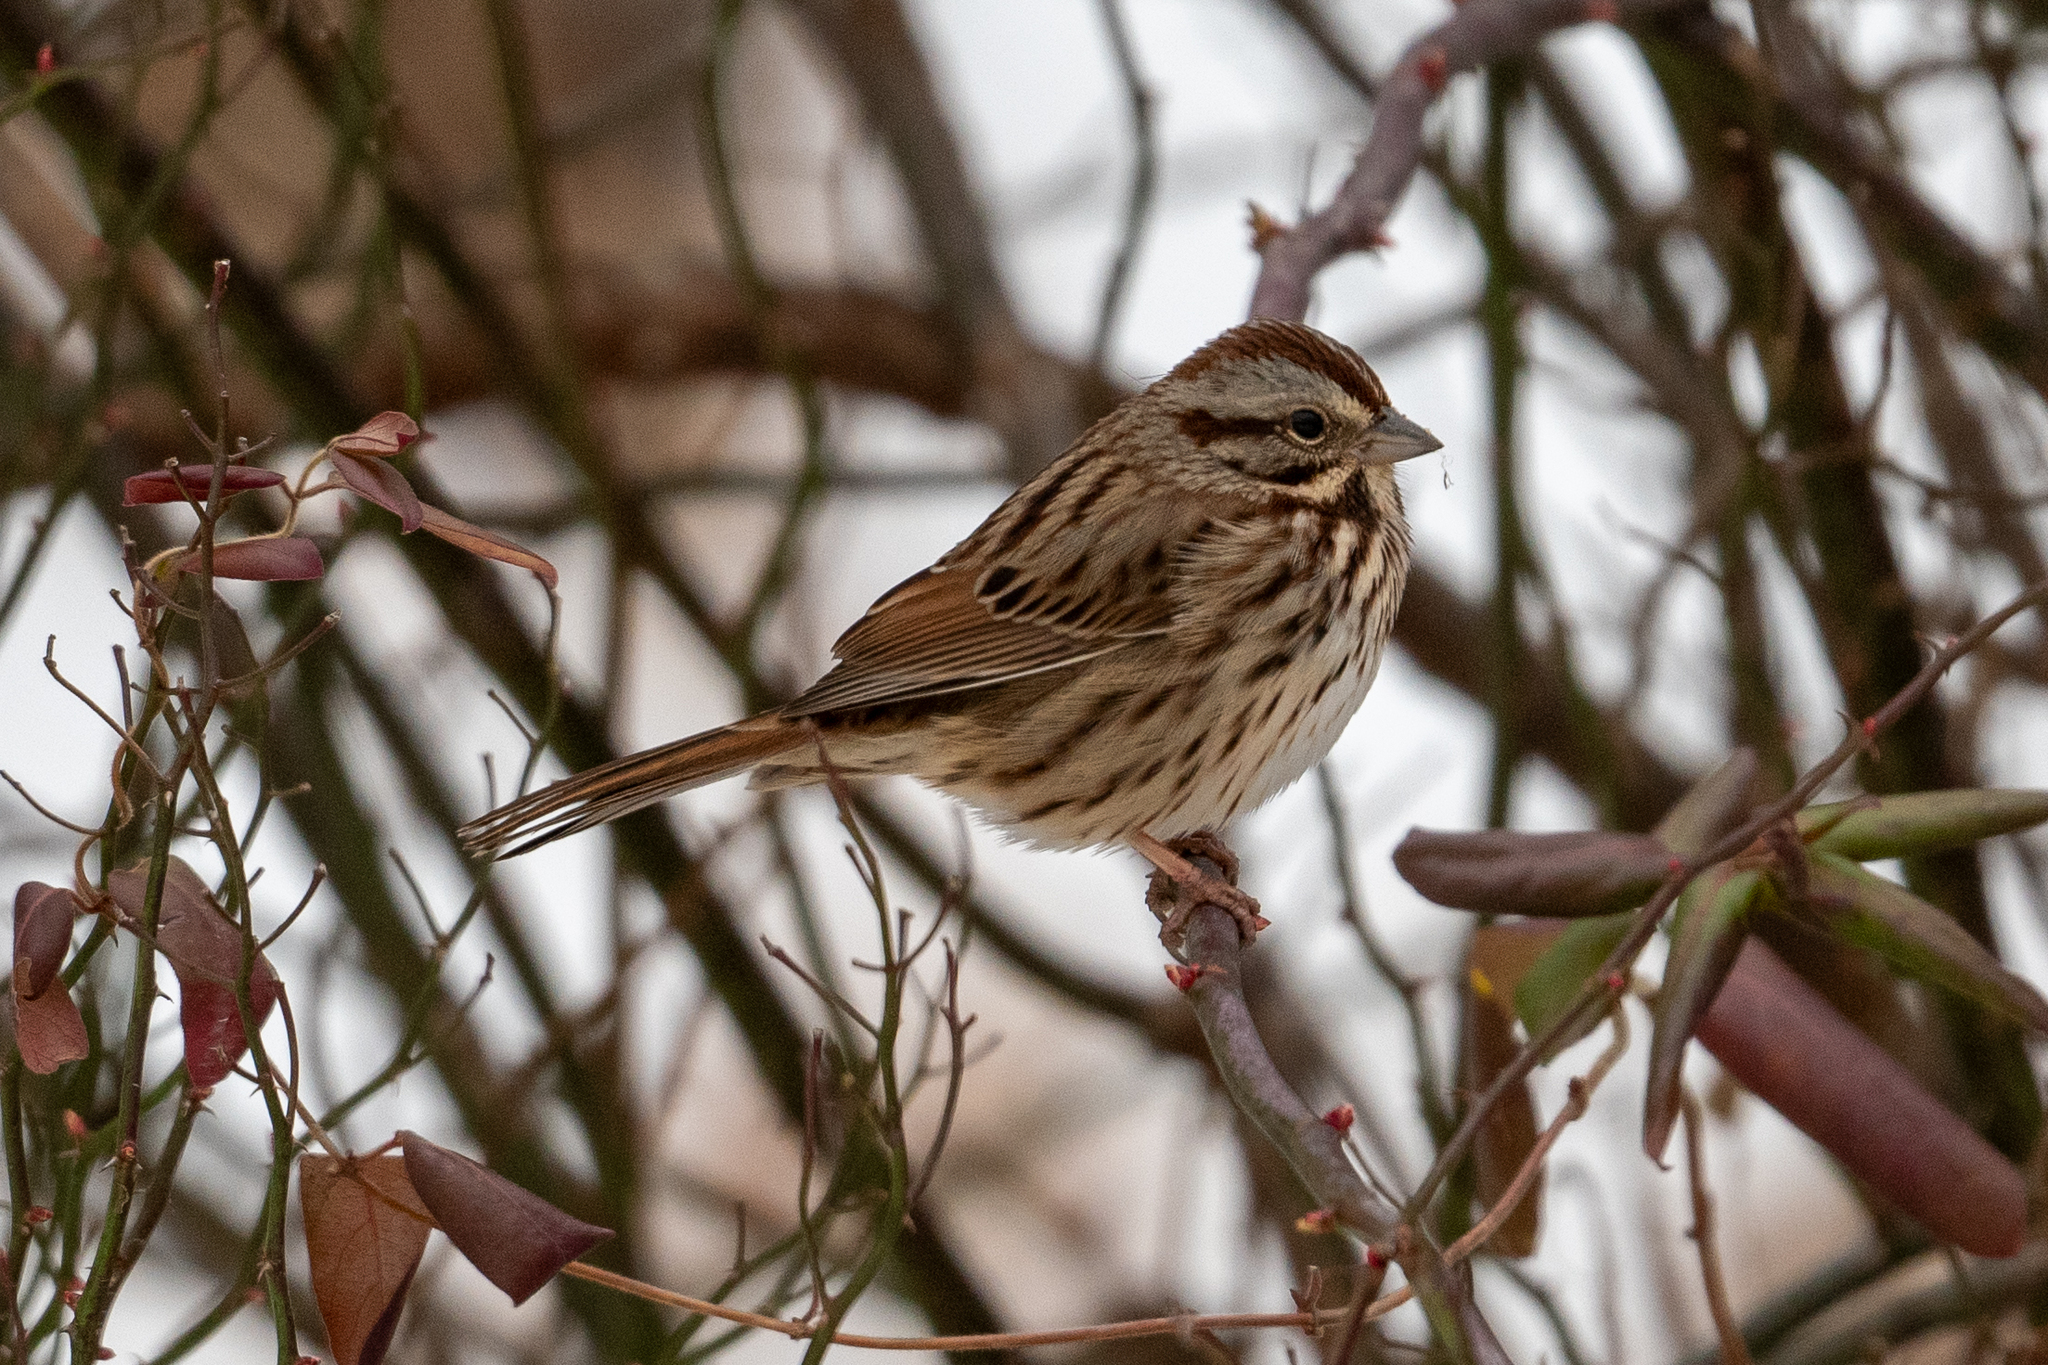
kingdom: Animalia
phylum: Chordata
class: Aves
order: Passeriformes
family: Passerellidae
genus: Melospiza
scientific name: Melospiza melodia
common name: Song sparrow
